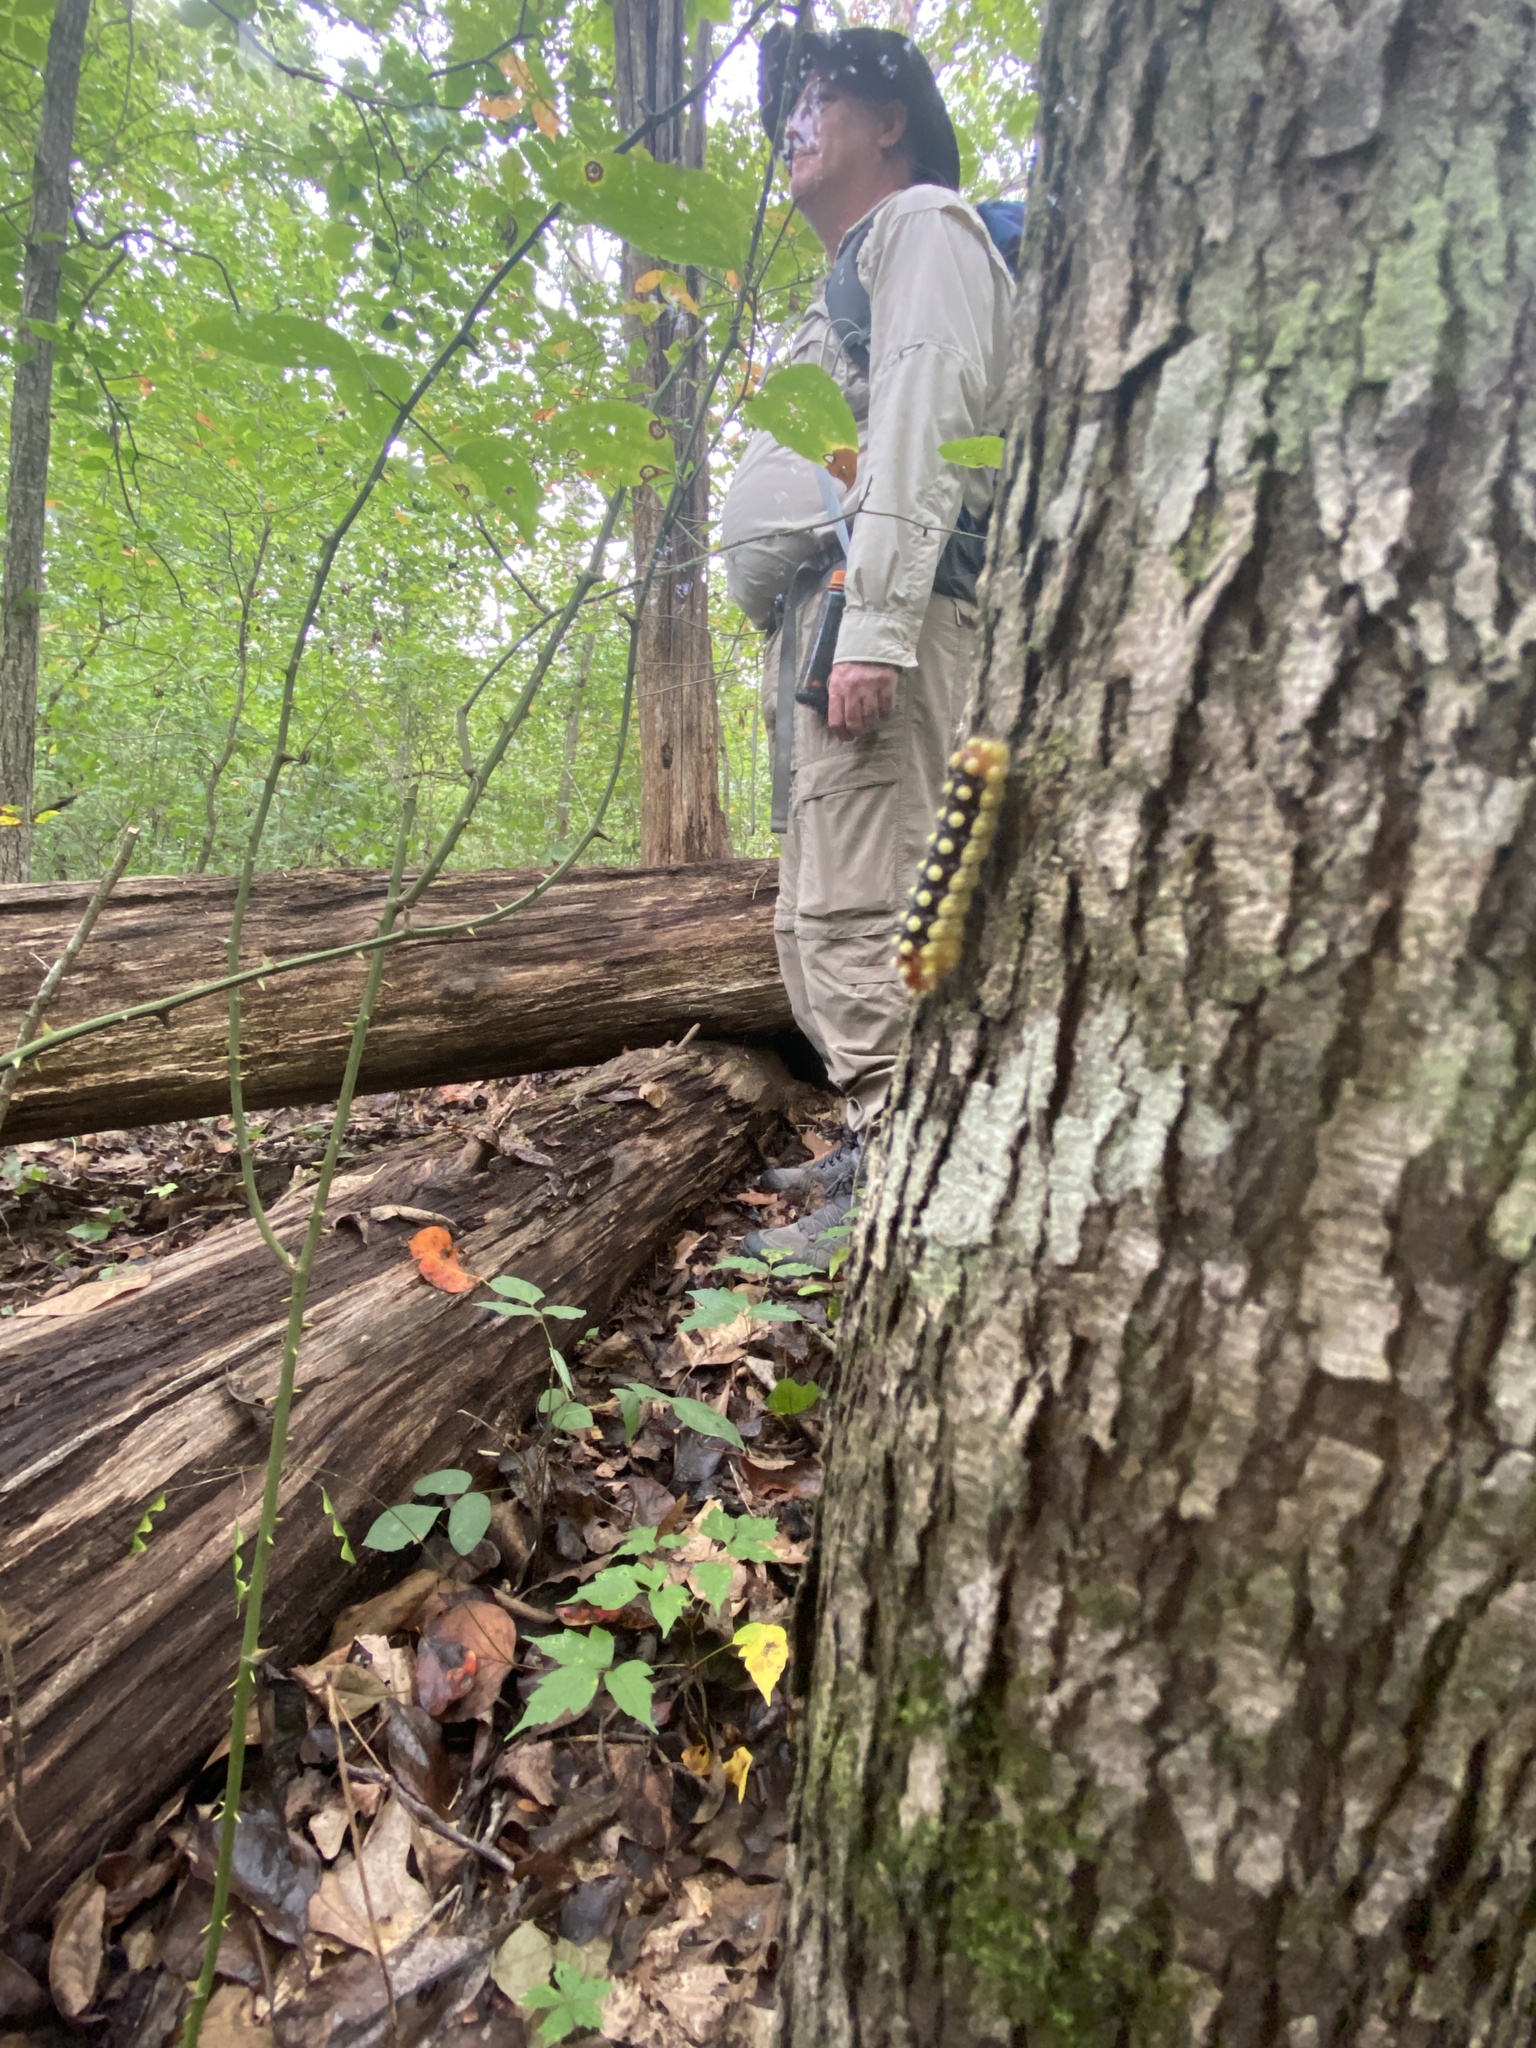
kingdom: Animalia
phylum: Arthropoda
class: Insecta
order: Lepidoptera
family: Megalopygidae
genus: Norape
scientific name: Norape cretata
